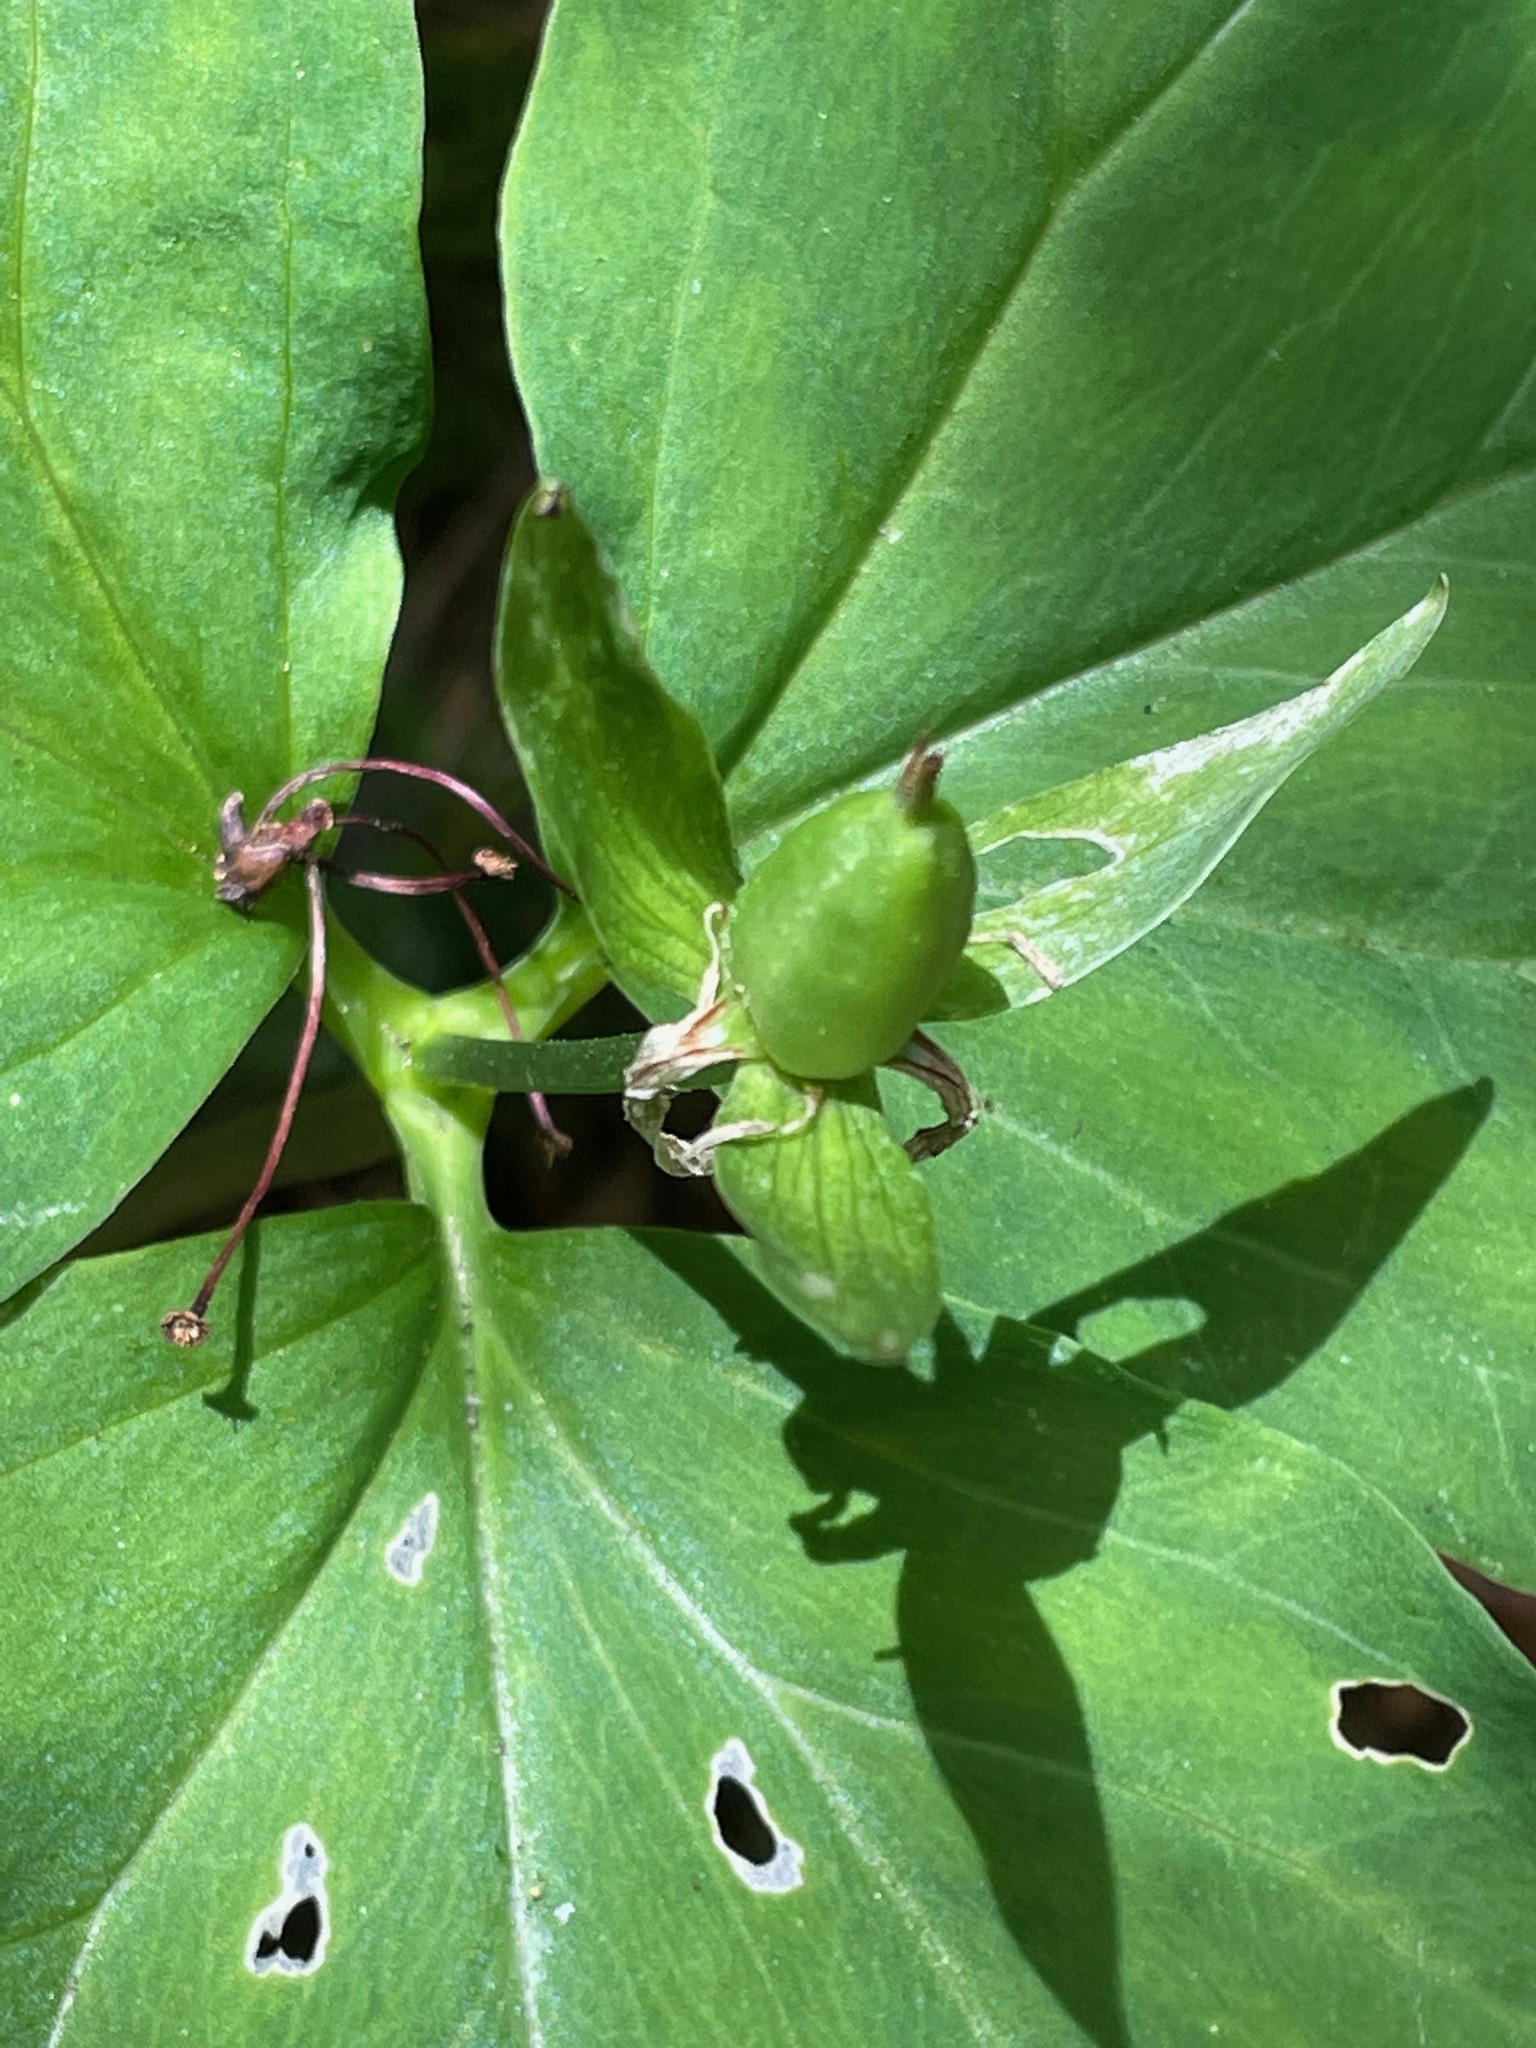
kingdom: Plantae
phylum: Tracheophyta
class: Liliopsida
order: Liliales
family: Melanthiaceae
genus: Trillium
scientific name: Trillium undulatum
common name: Paint trillium
